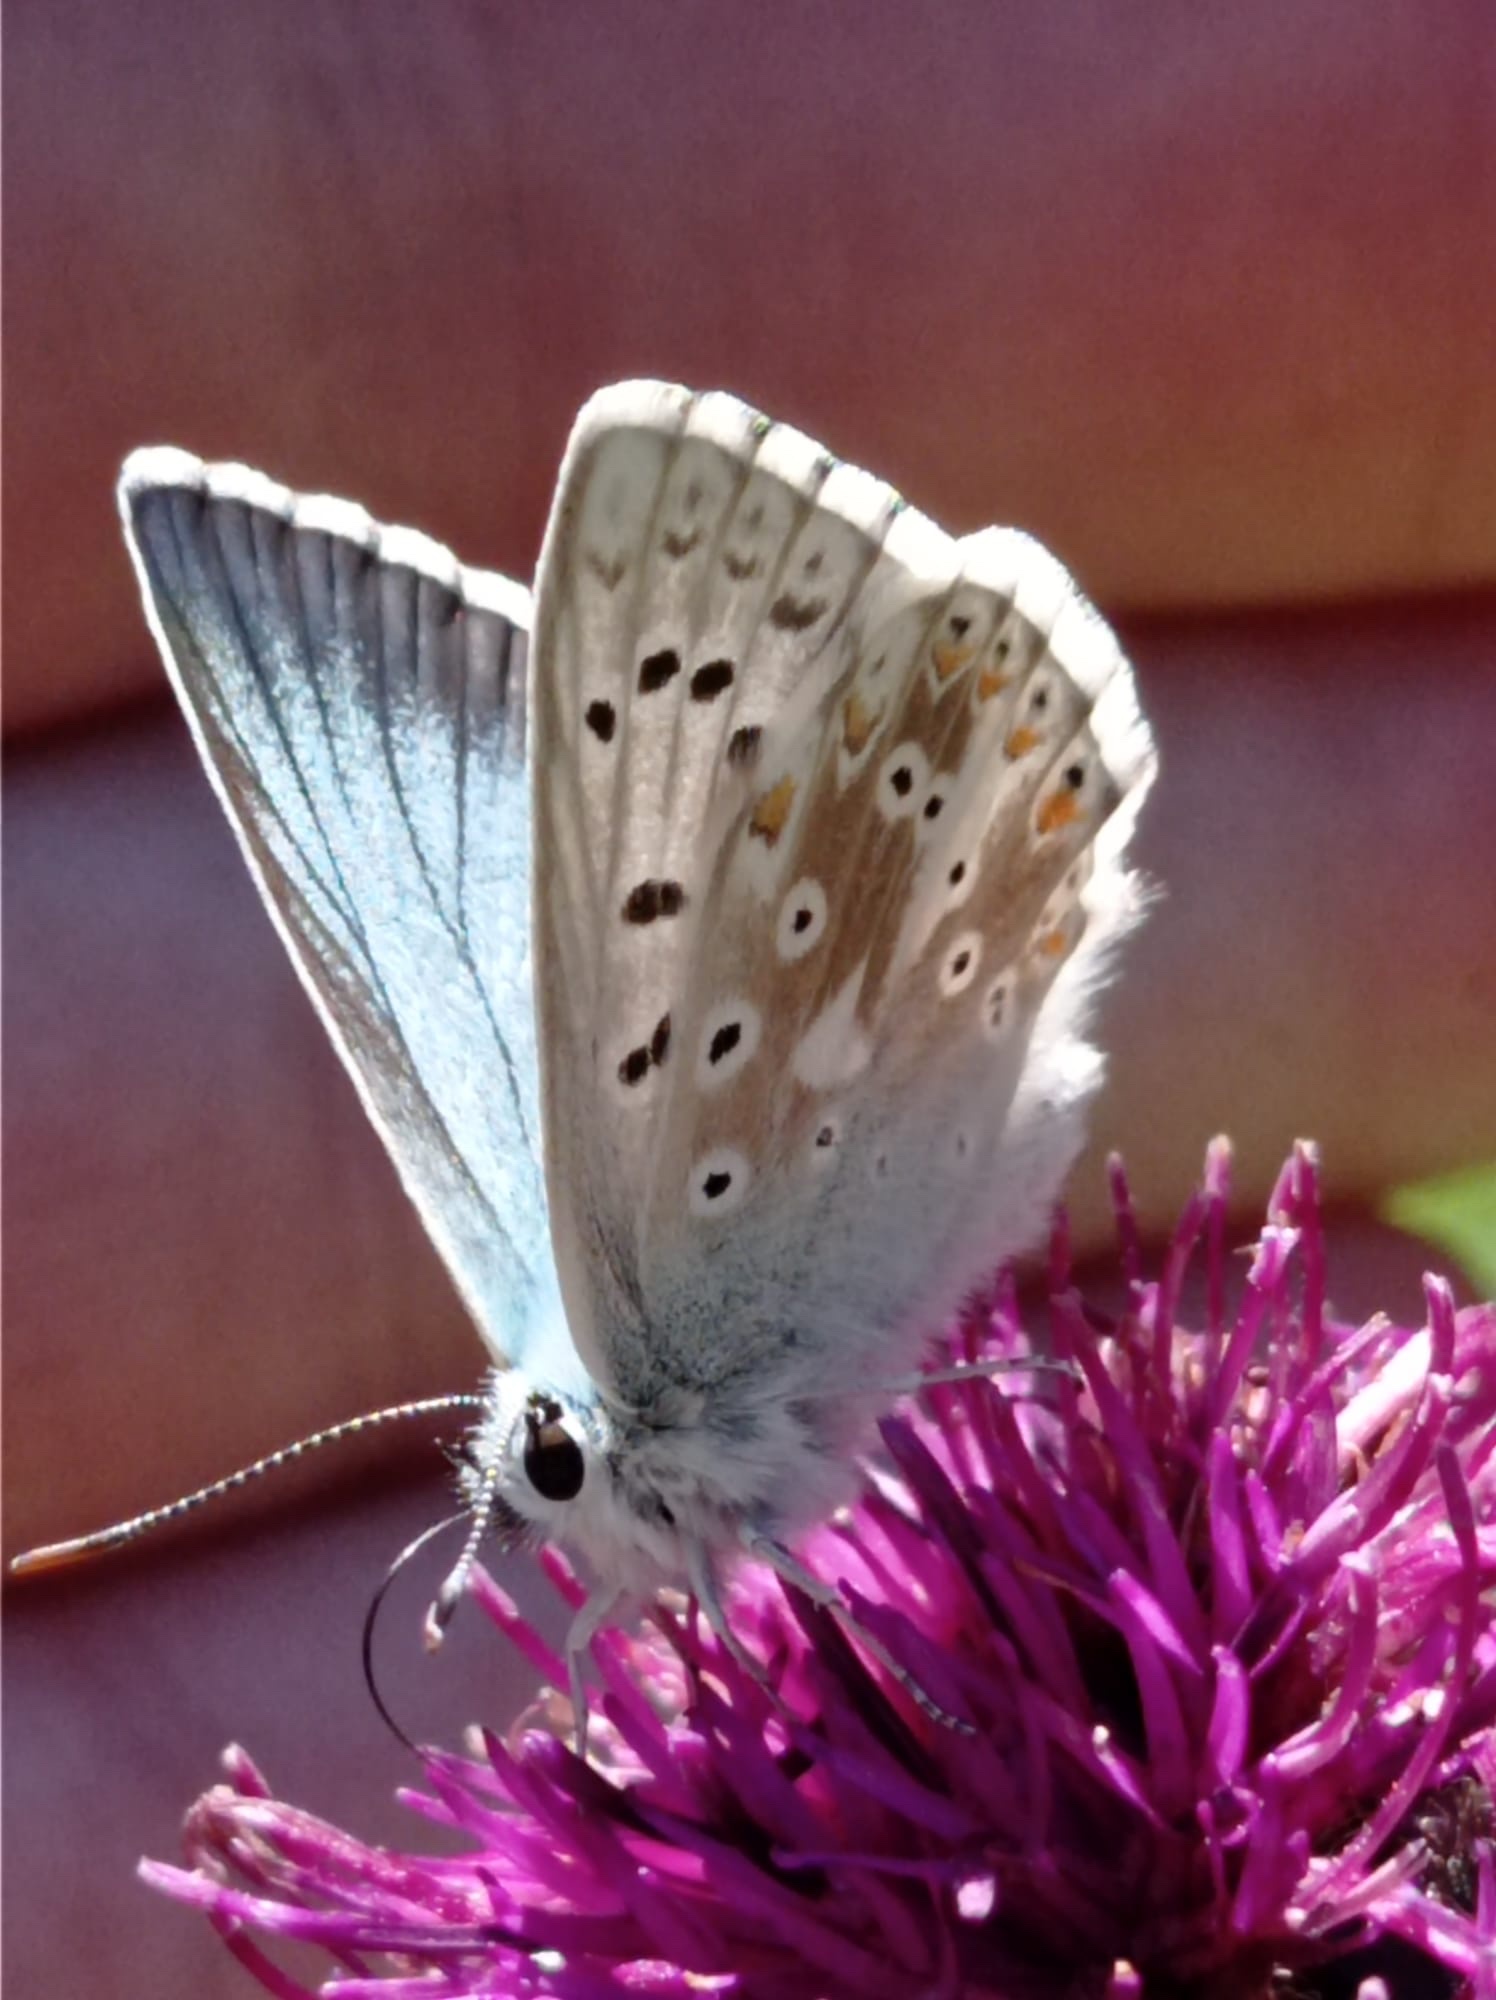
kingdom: Animalia
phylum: Arthropoda
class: Insecta
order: Lepidoptera
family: Lycaenidae
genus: Lysandra
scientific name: Lysandra coridon
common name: Chalkhill blue
